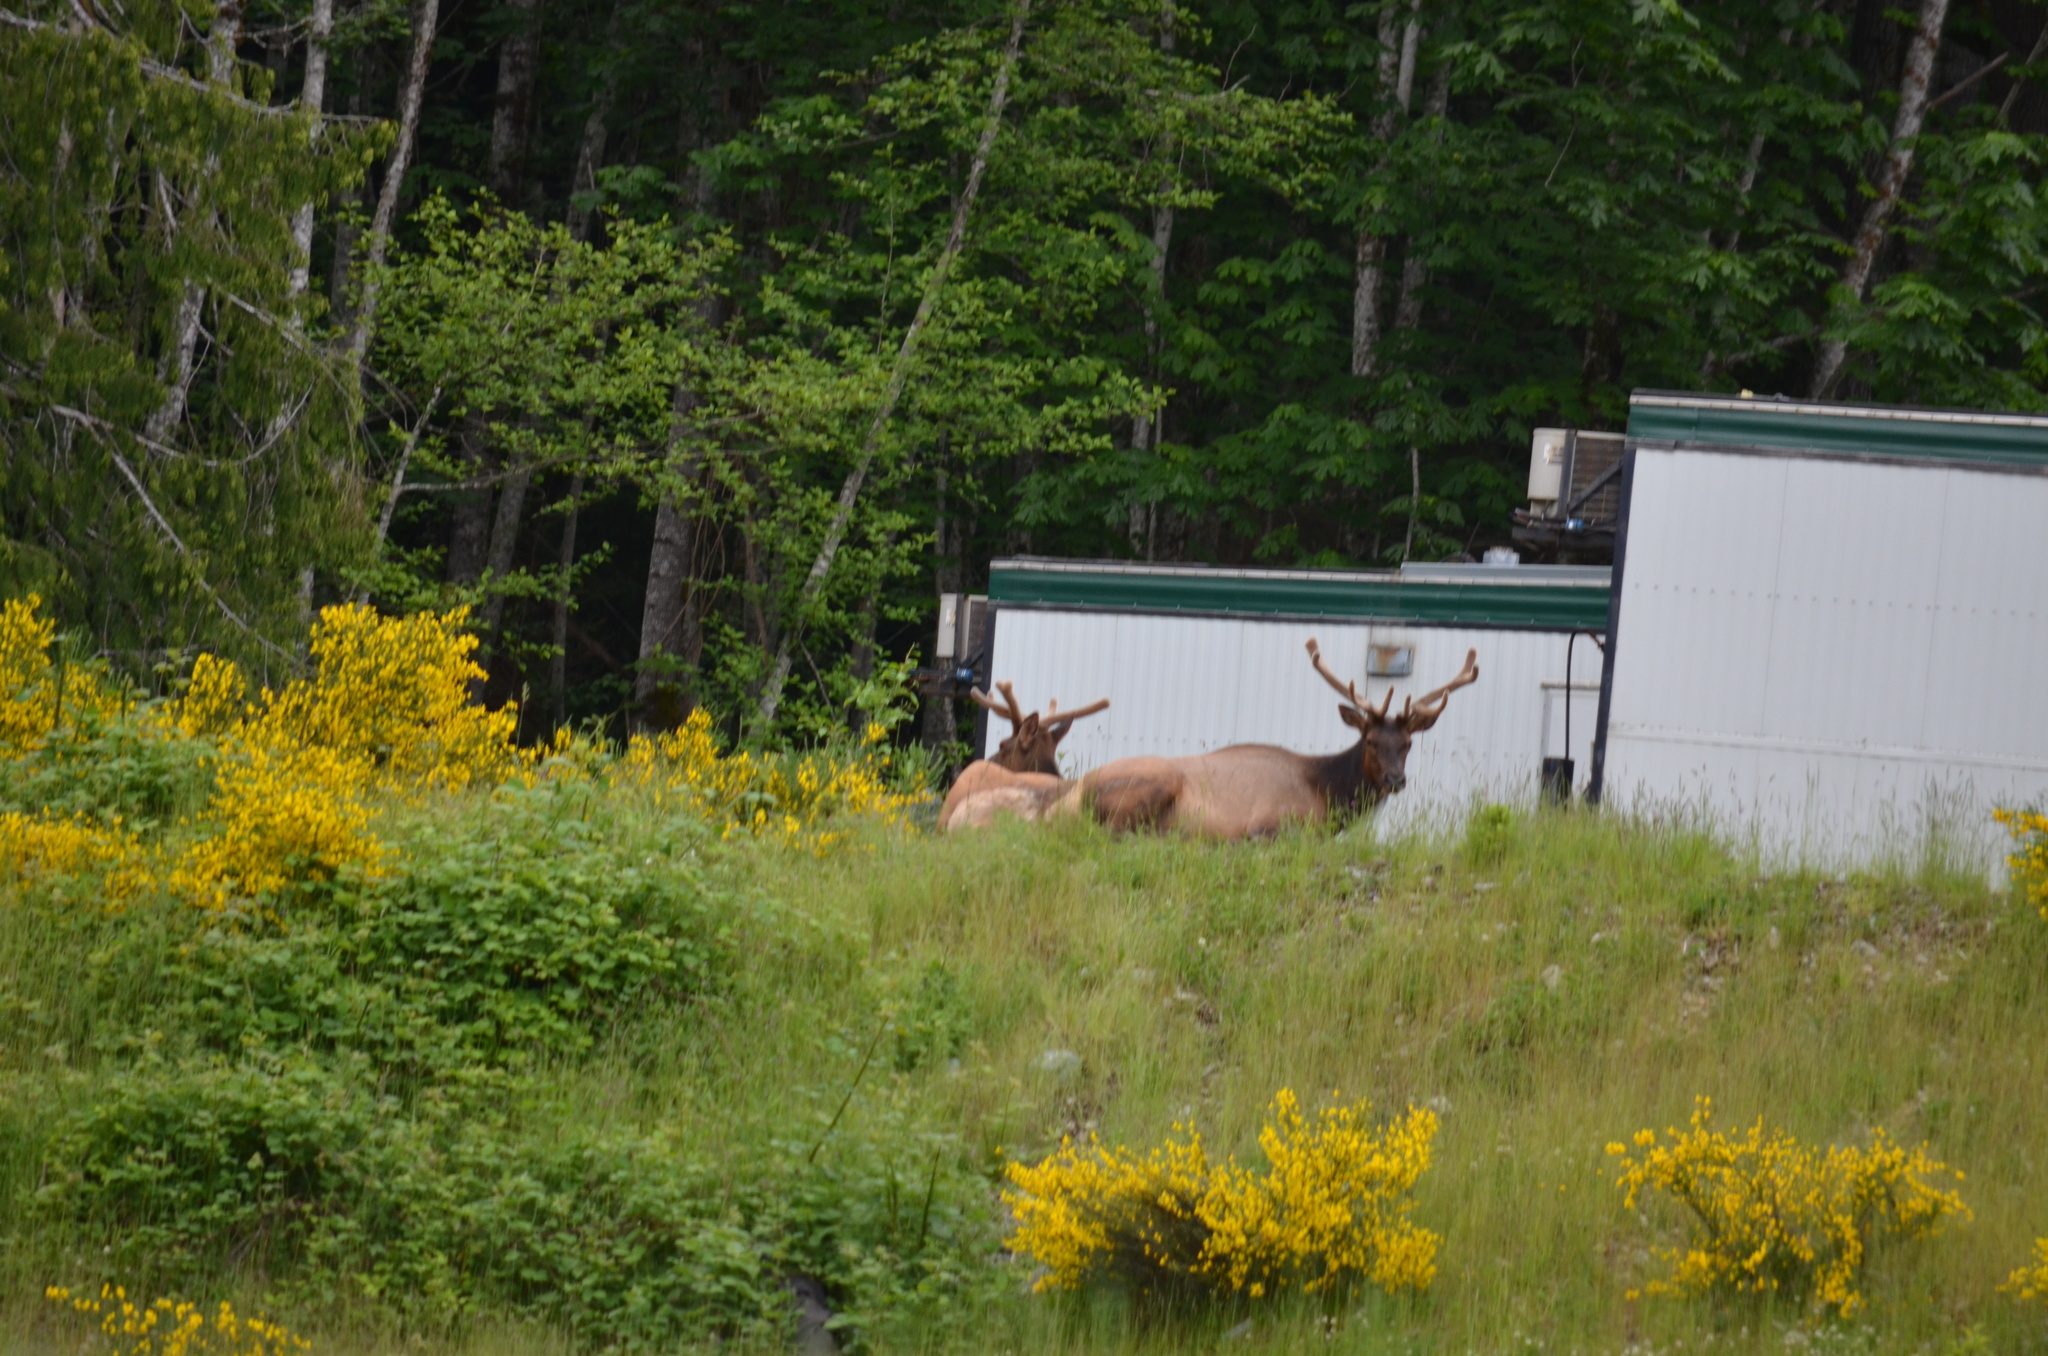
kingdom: Animalia
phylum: Chordata
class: Mammalia
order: Artiodactyla
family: Cervidae
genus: Cervus
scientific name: Cervus elaphus
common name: Red deer
